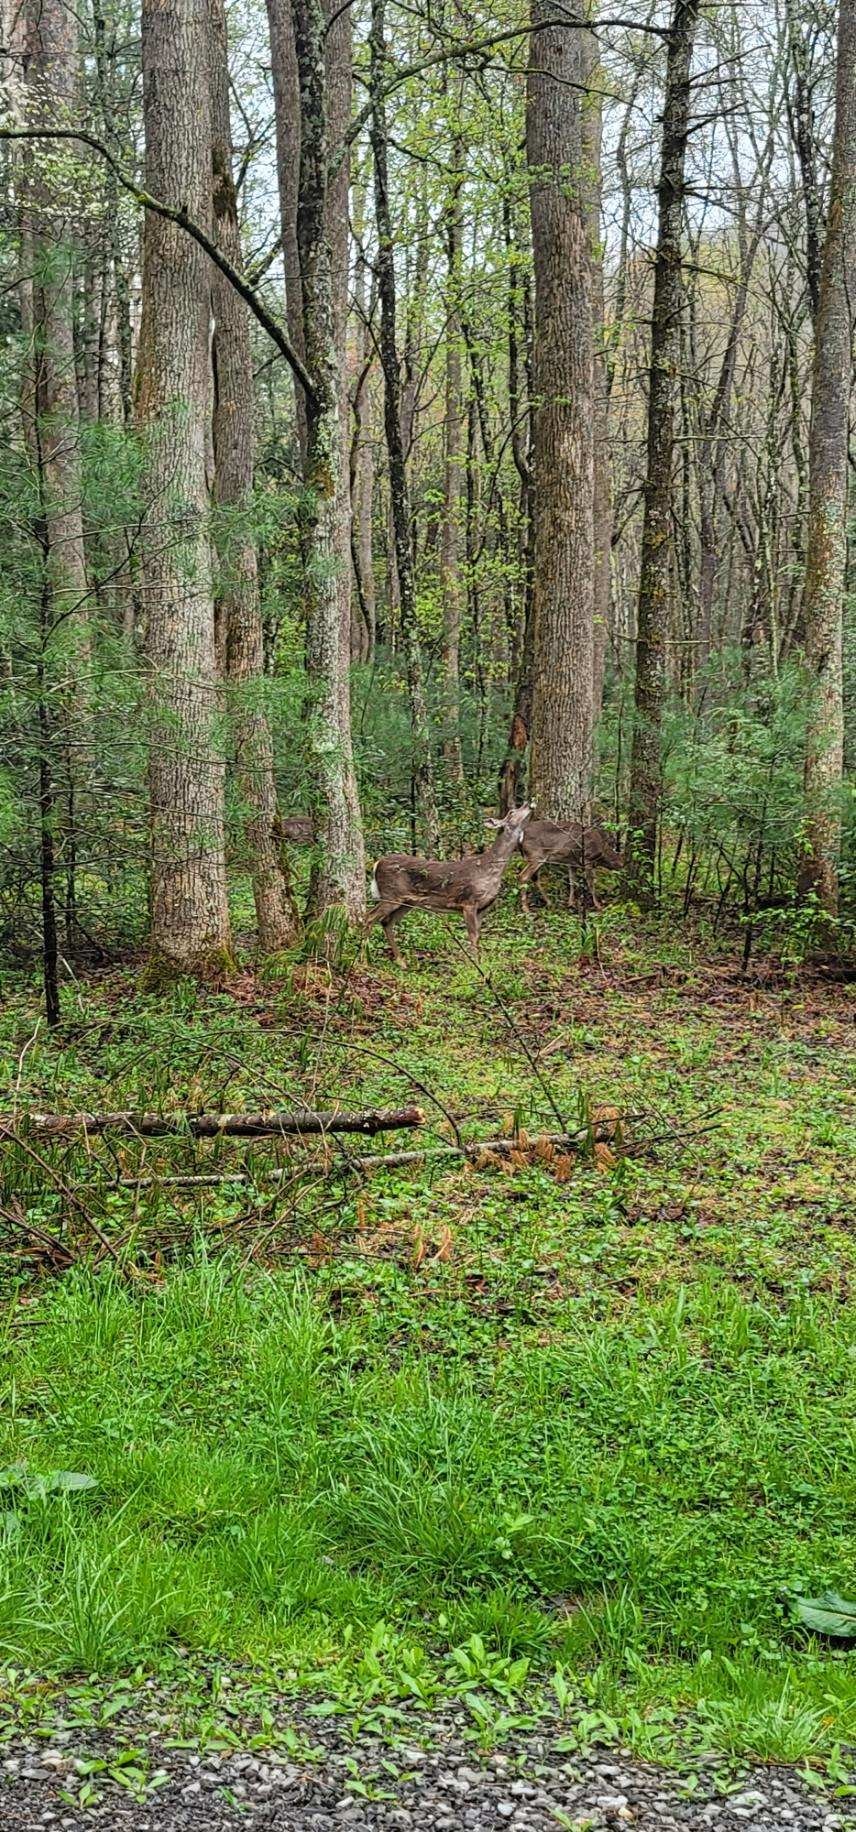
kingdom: Animalia
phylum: Chordata
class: Mammalia
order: Artiodactyla
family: Cervidae
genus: Odocoileus
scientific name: Odocoileus virginianus
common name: White-tailed deer
